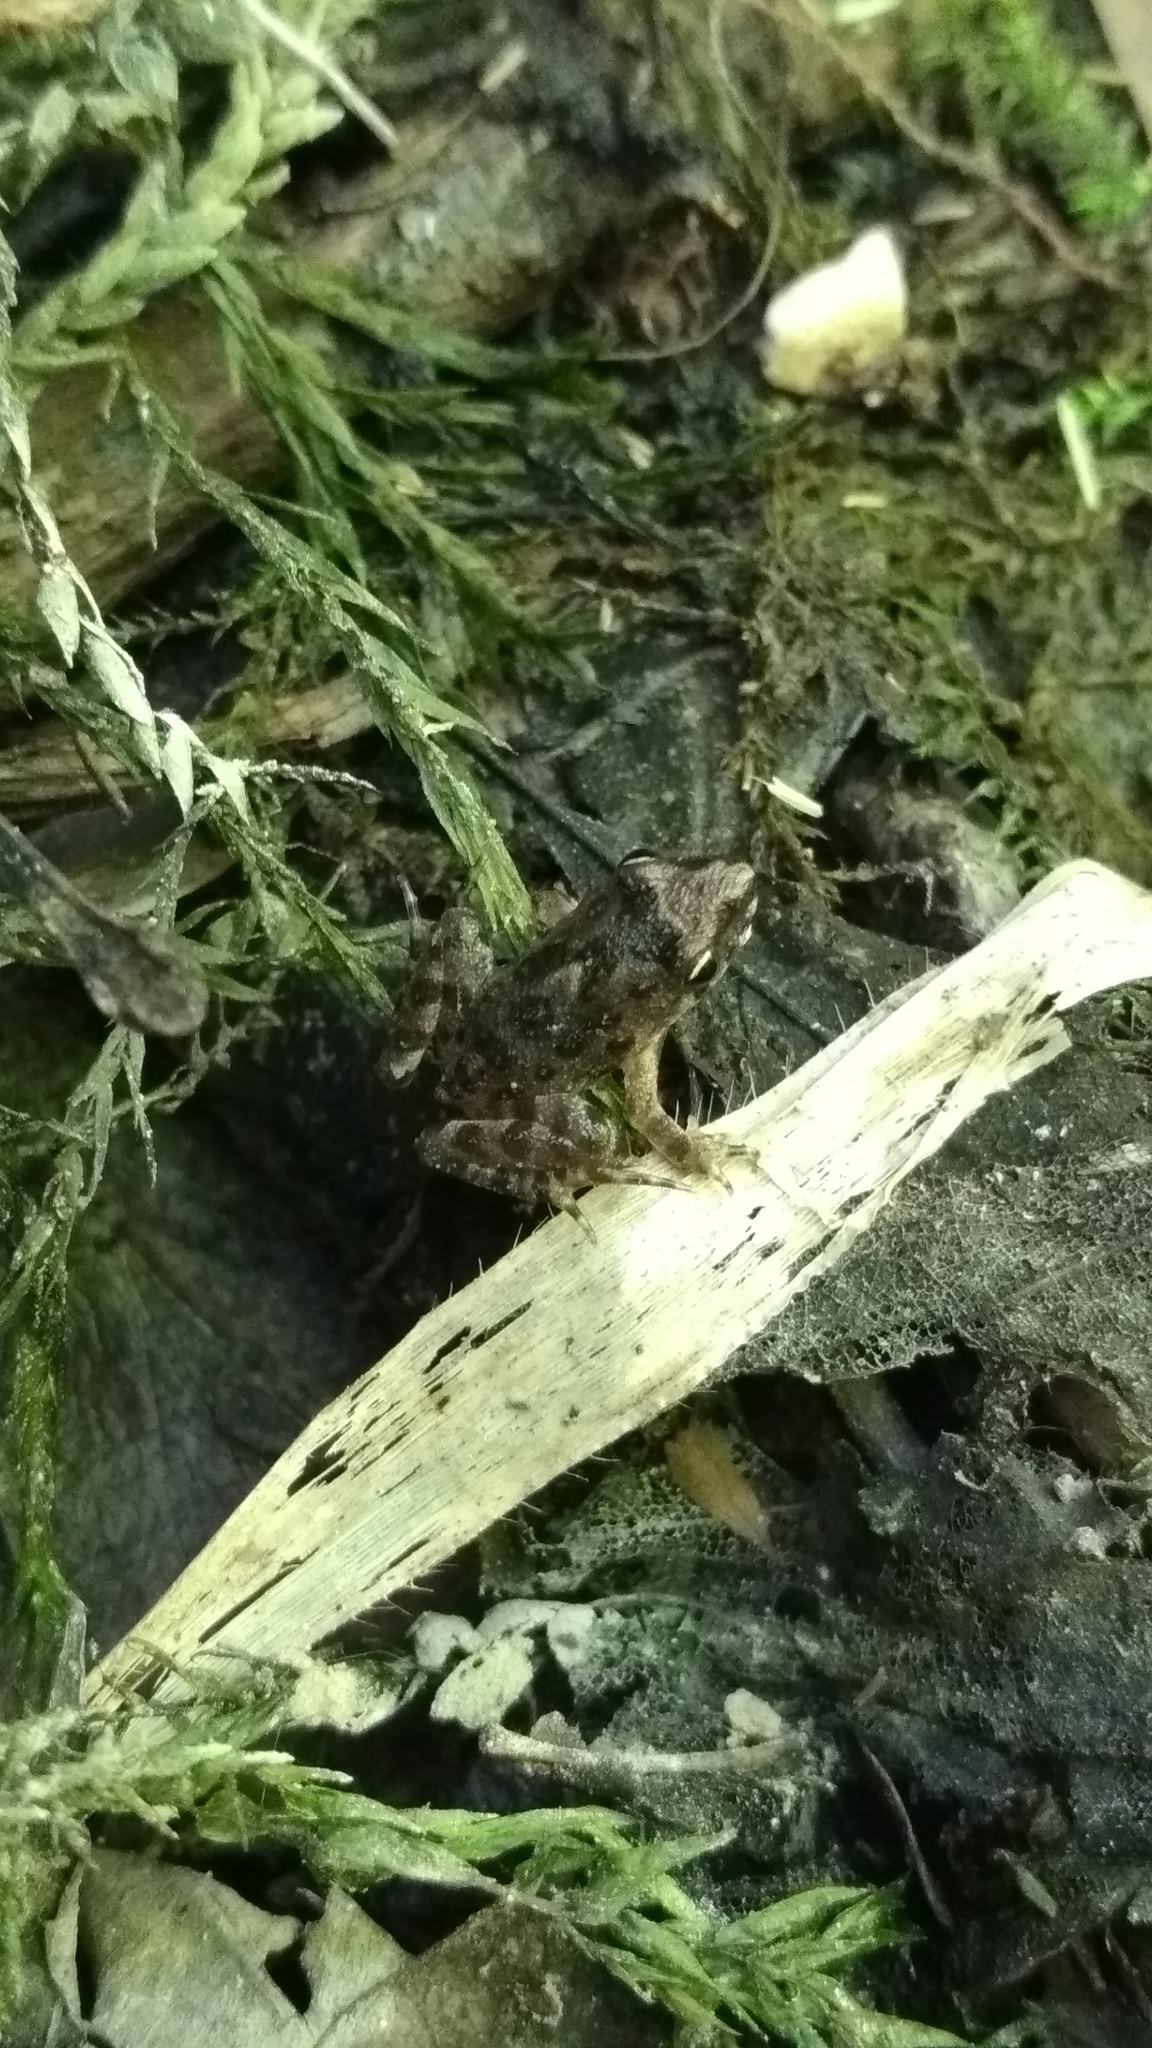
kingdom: Animalia
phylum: Chordata
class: Amphibia
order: Anura
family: Alytidae
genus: Discoglossus
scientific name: Discoglossus pictus
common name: Painted frog
